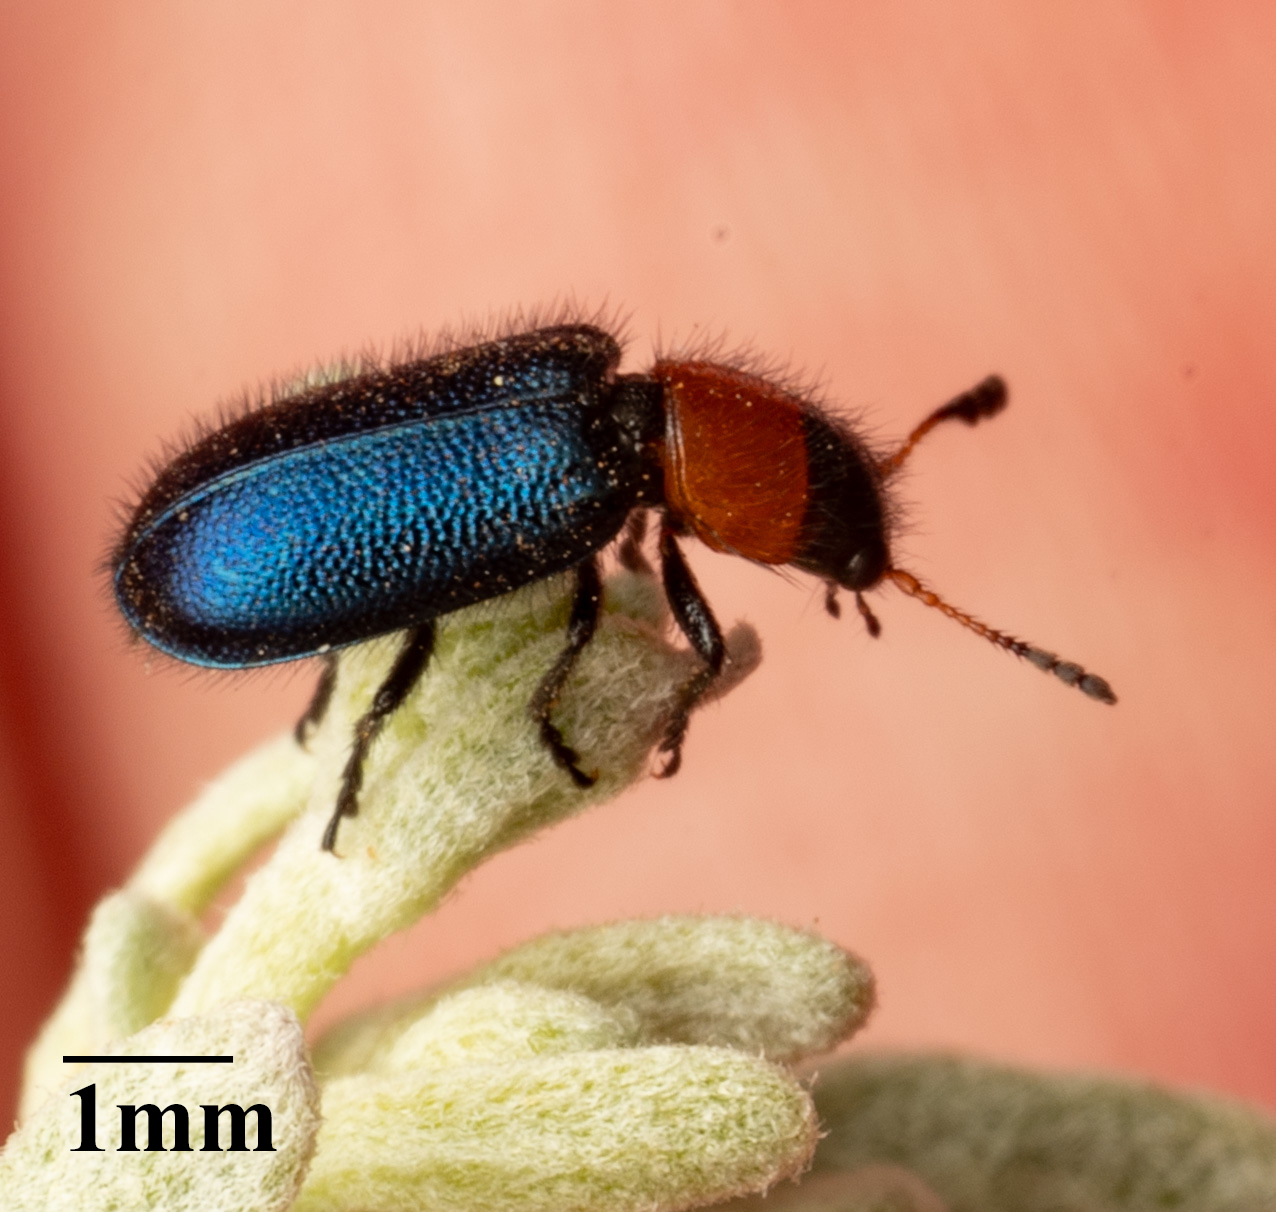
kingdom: Animalia
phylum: Arthropoda
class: Insecta
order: Coleoptera
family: Cleridae
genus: Loedelia
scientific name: Loedelia maculicollis
